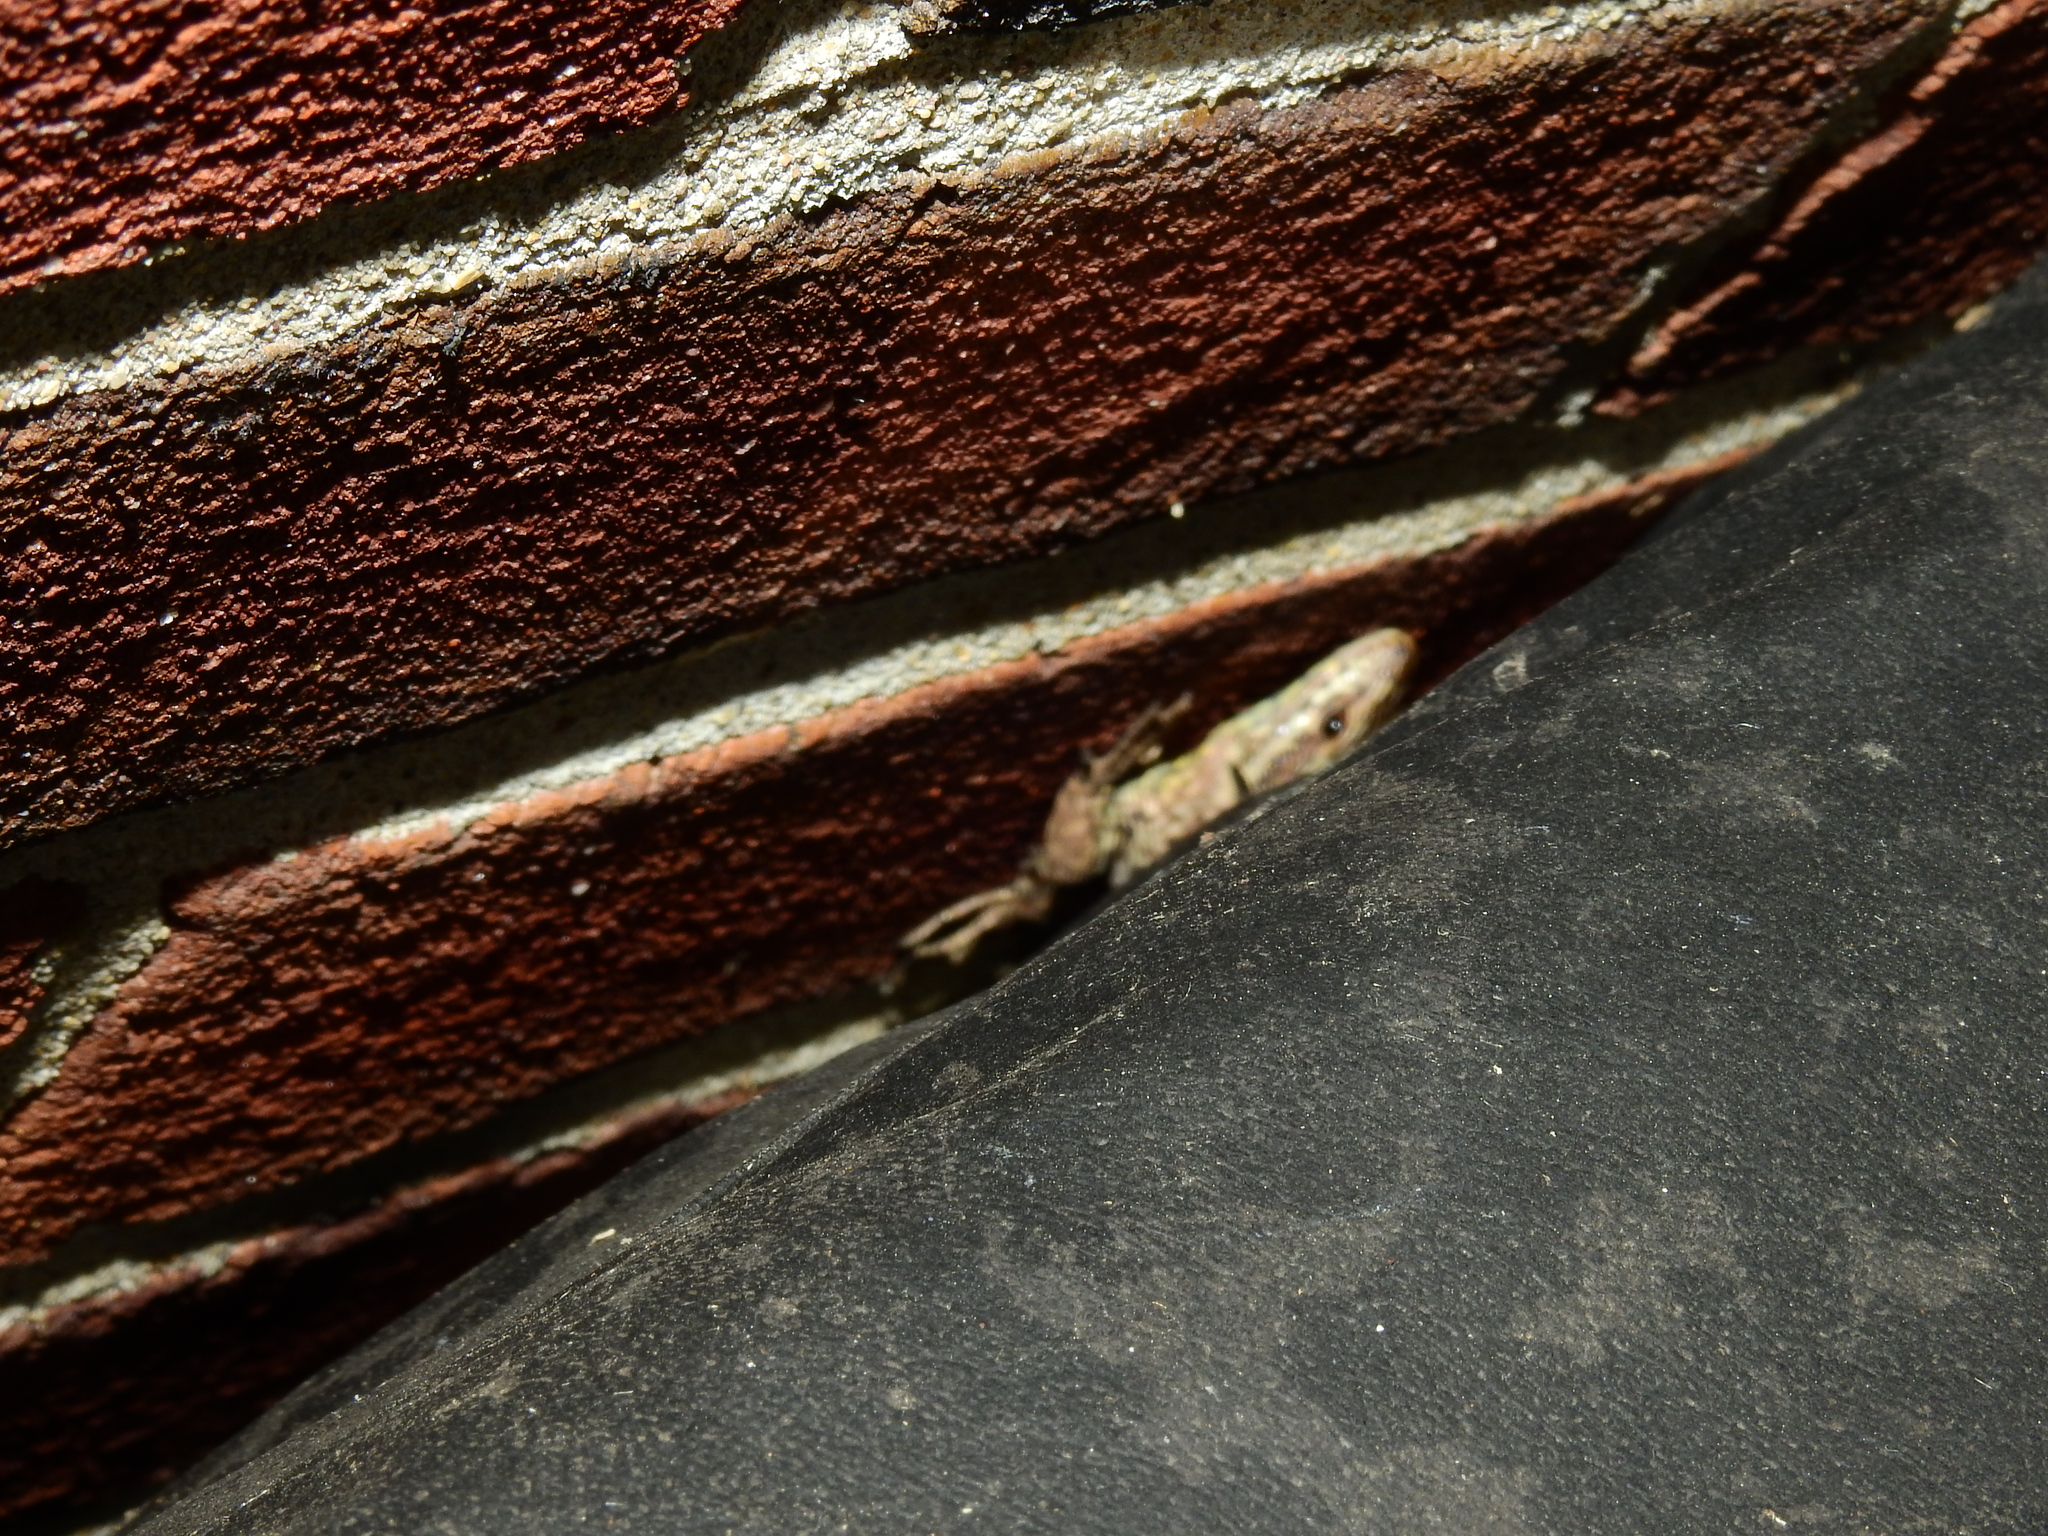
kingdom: Animalia
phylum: Chordata
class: Squamata
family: Lacertidae
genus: Podarcis
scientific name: Podarcis muralis
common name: Common wall lizard
